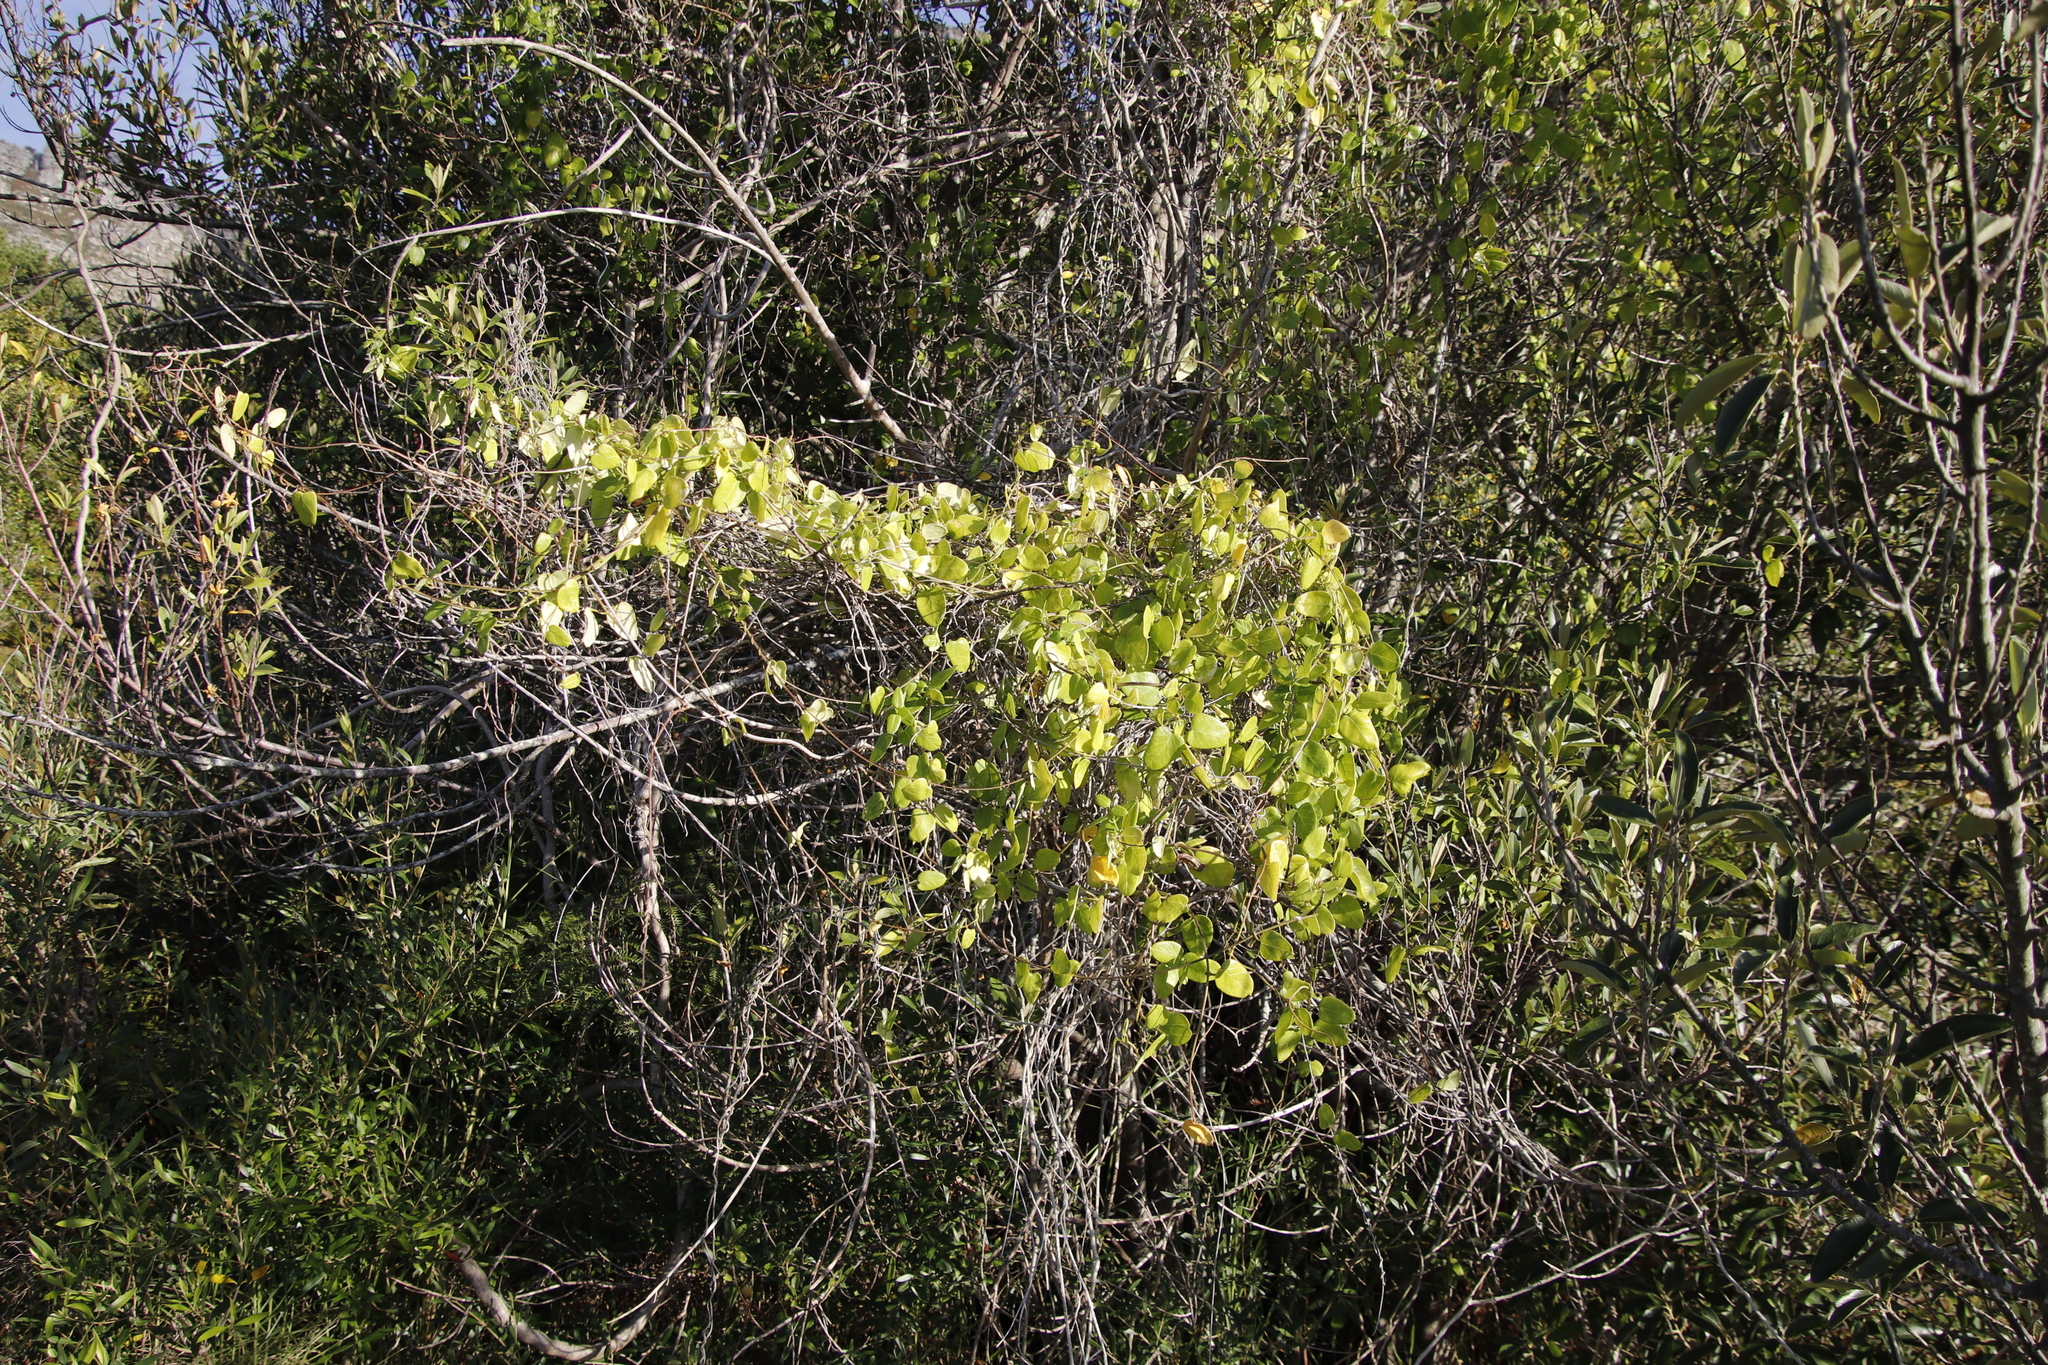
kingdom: Plantae
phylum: Tracheophyta
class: Magnoliopsida
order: Gentianales
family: Apocynaceae
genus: Cynanchum
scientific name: Cynanchum obtusifolium
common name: Monkey-rope
